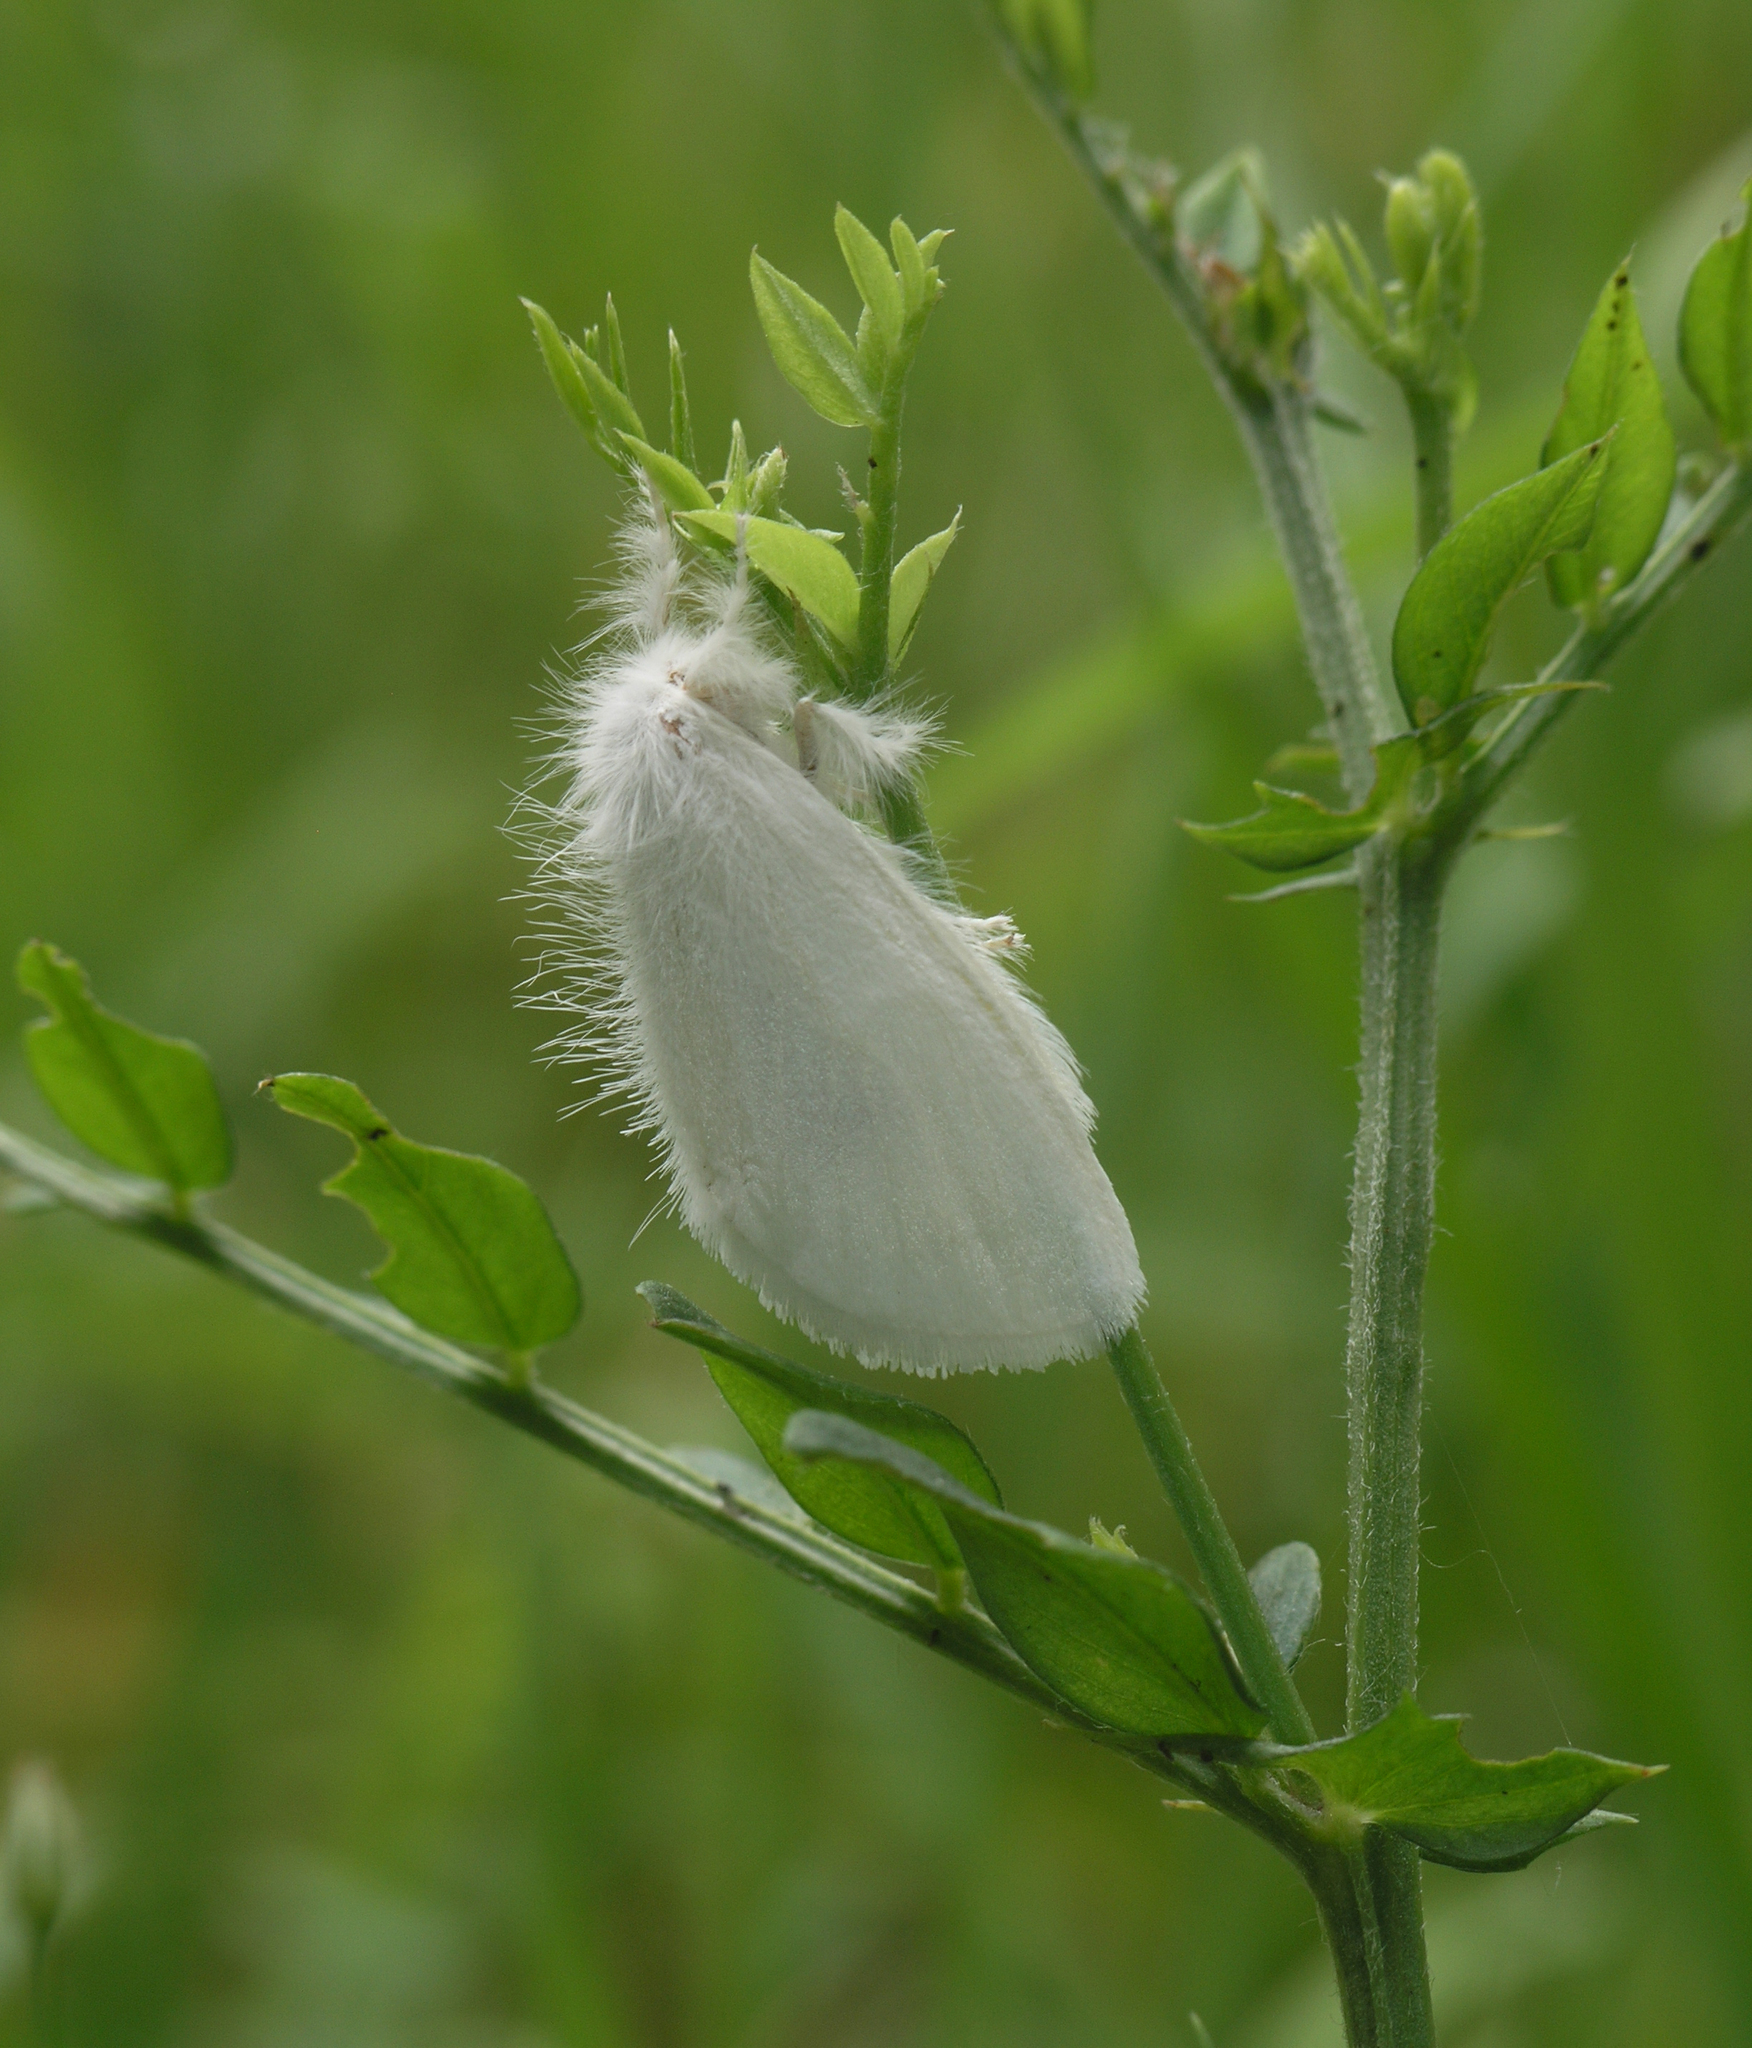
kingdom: Animalia
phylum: Arthropoda
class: Insecta
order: Lepidoptera
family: Erebidae
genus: Sphrageidus
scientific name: Sphrageidus similis
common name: Yellow-tail
